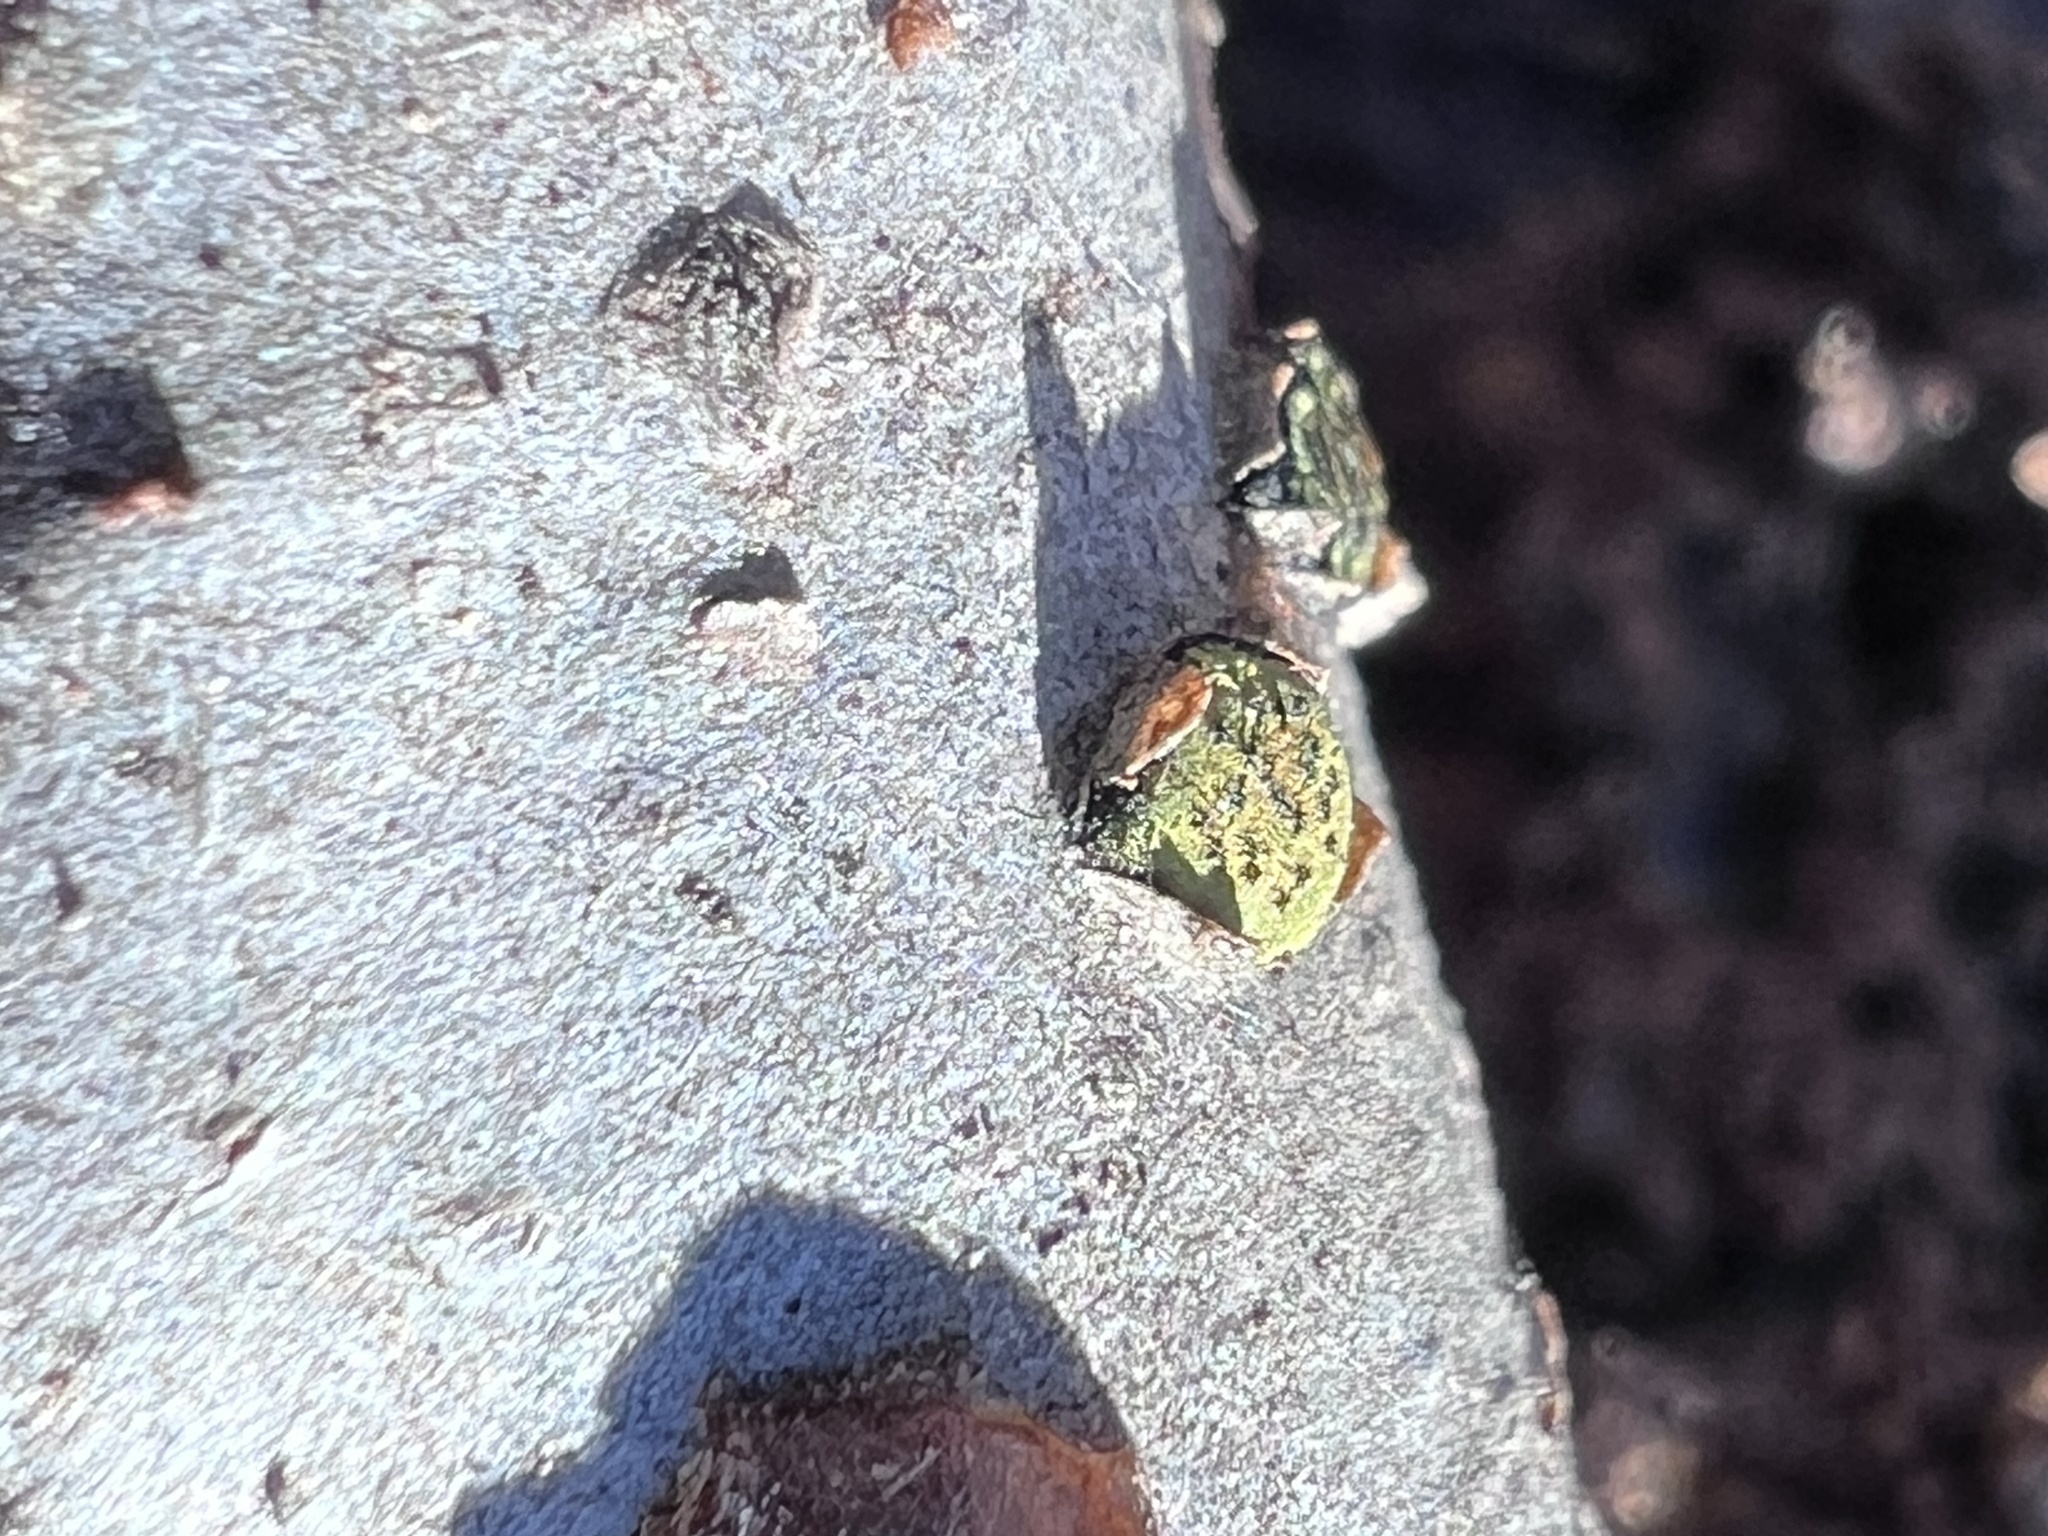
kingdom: Fungi
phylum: Ascomycota
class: Sordariomycetes
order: Xylariales
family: Diatrypaceae
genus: Diatrype
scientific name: Diatrype virescens
